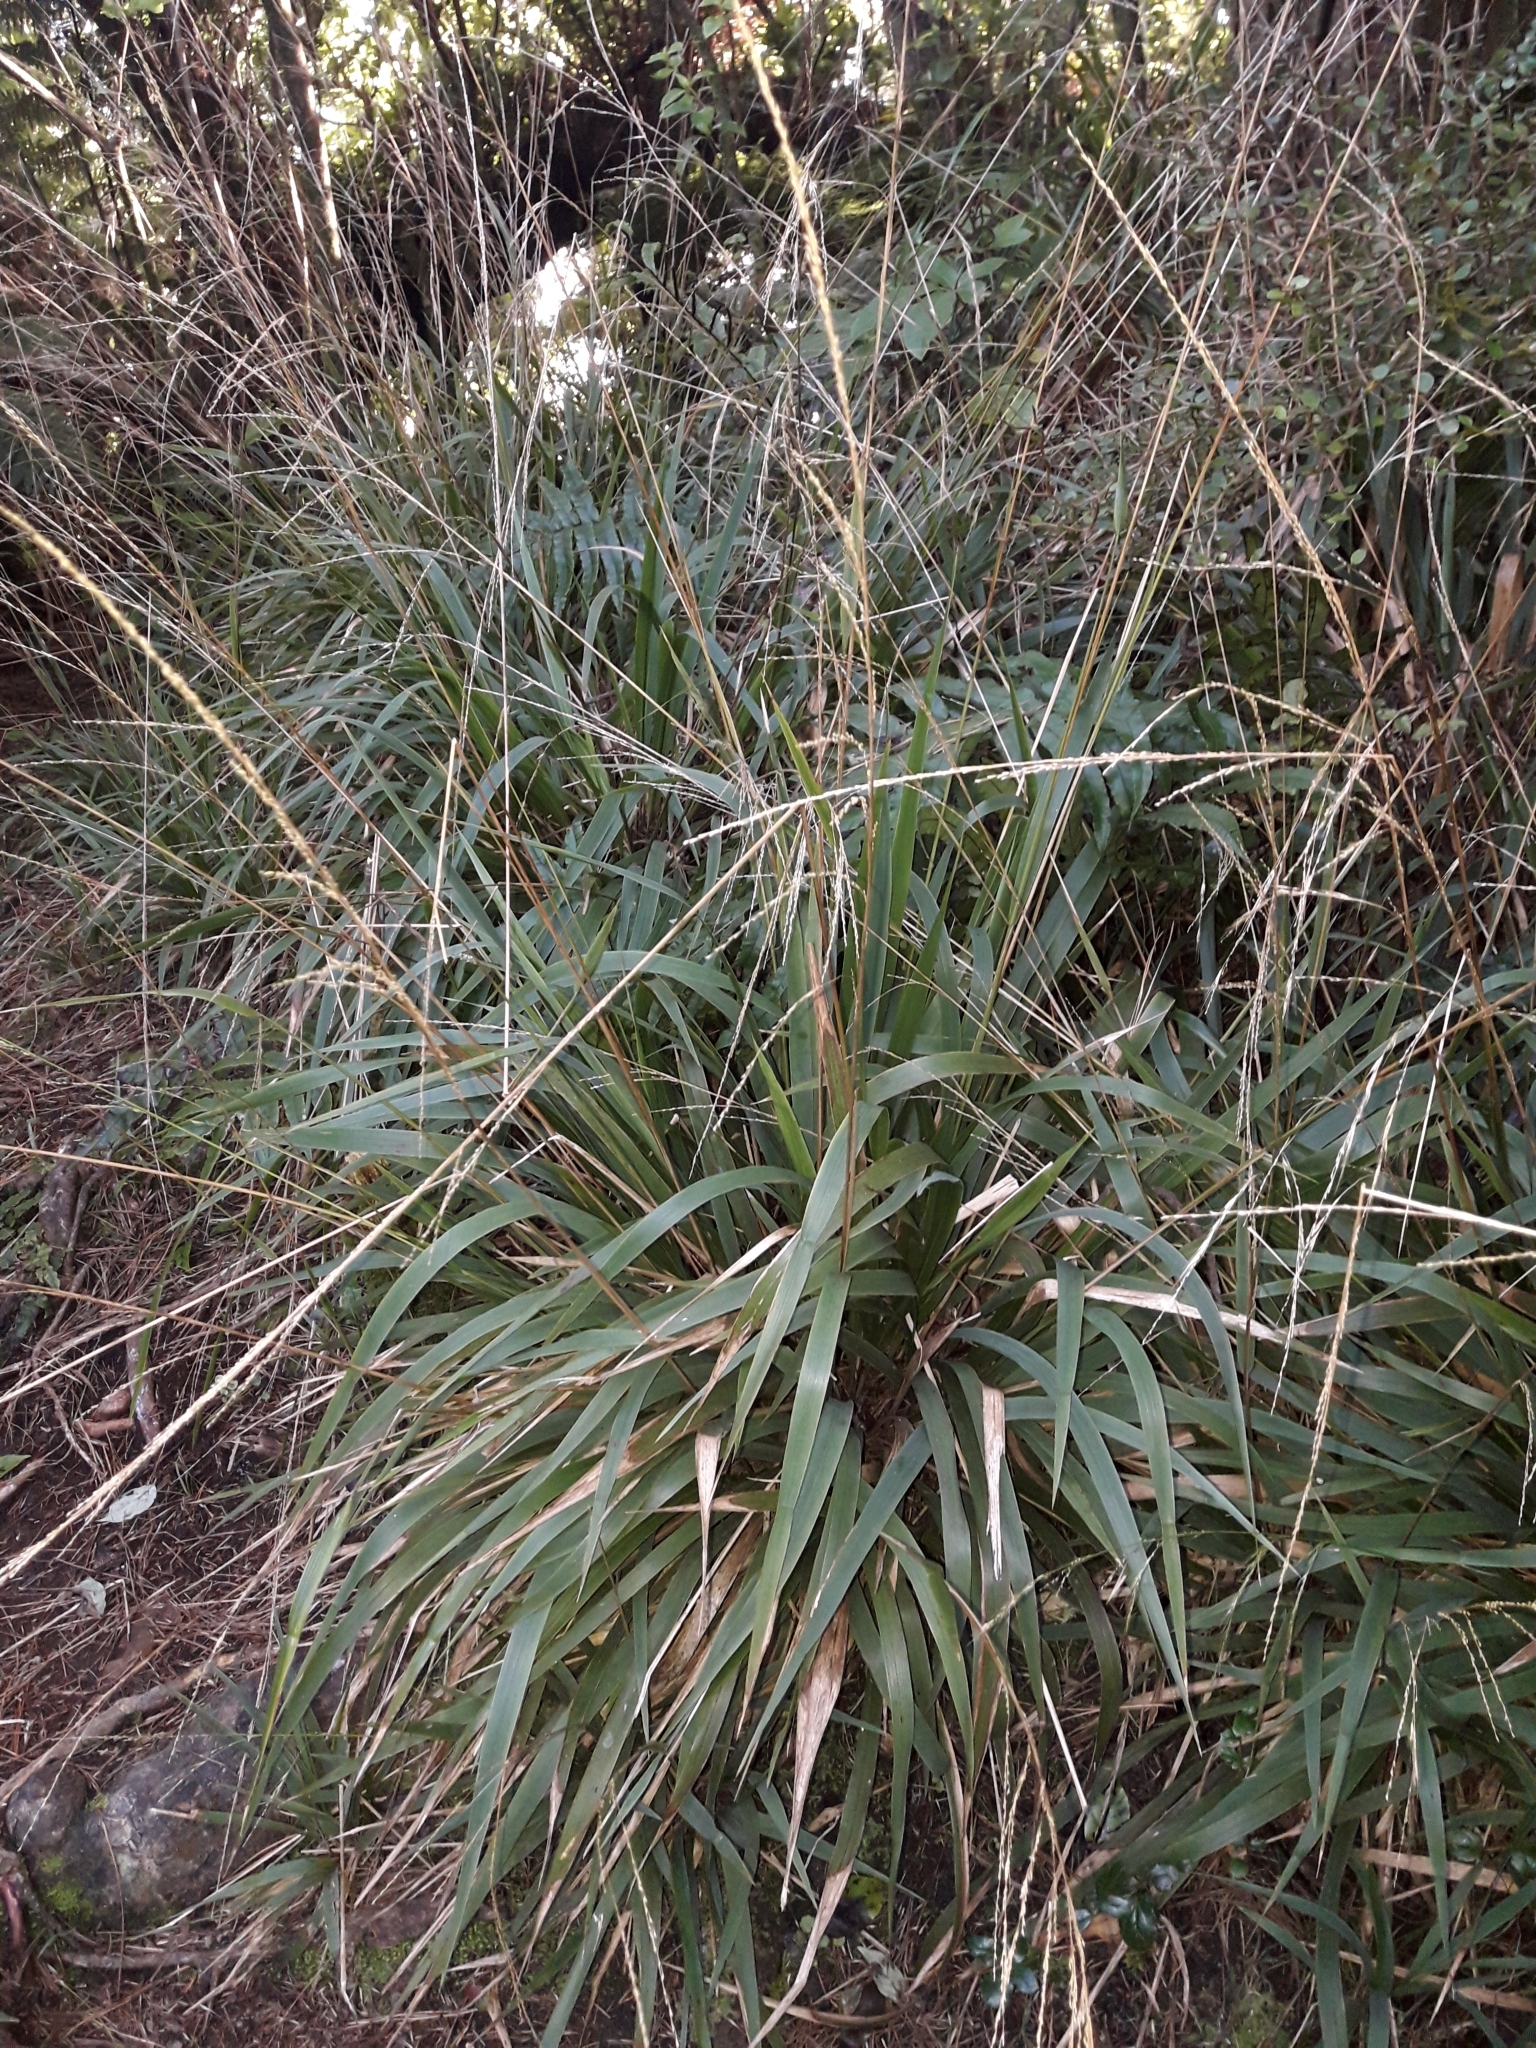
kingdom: Plantae
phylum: Tracheophyta
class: Liliopsida
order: Poales
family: Poaceae
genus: Ehrharta
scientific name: Ehrharta diplax
